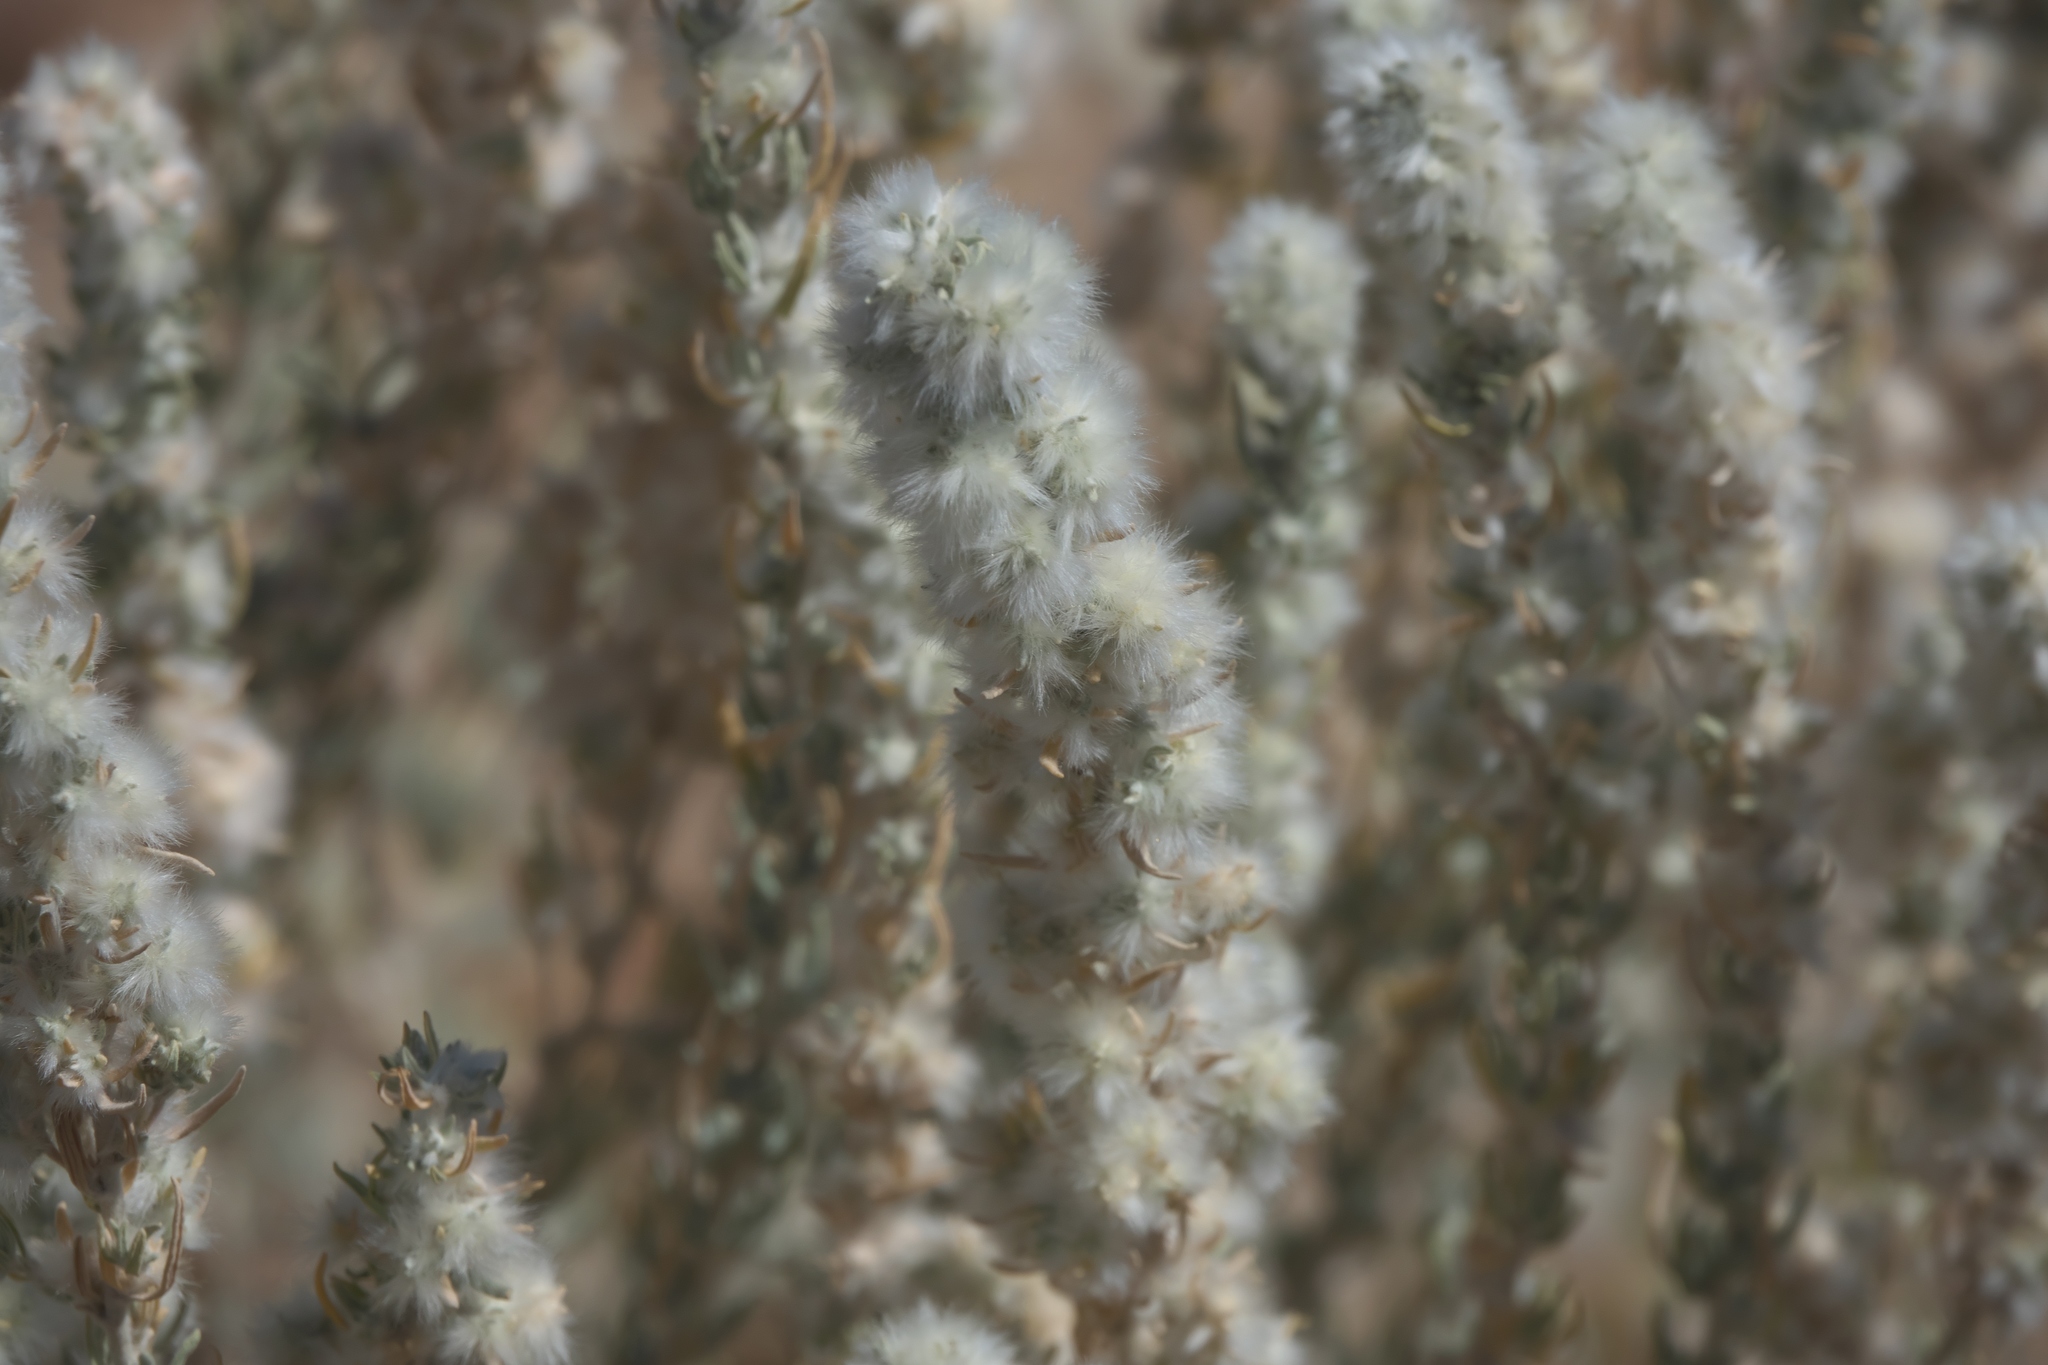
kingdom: Plantae
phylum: Tracheophyta
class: Magnoliopsida
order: Caryophyllales
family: Amaranthaceae
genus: Krascheninnikovia
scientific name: Krascheninnikovia lanata
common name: Winterfat
